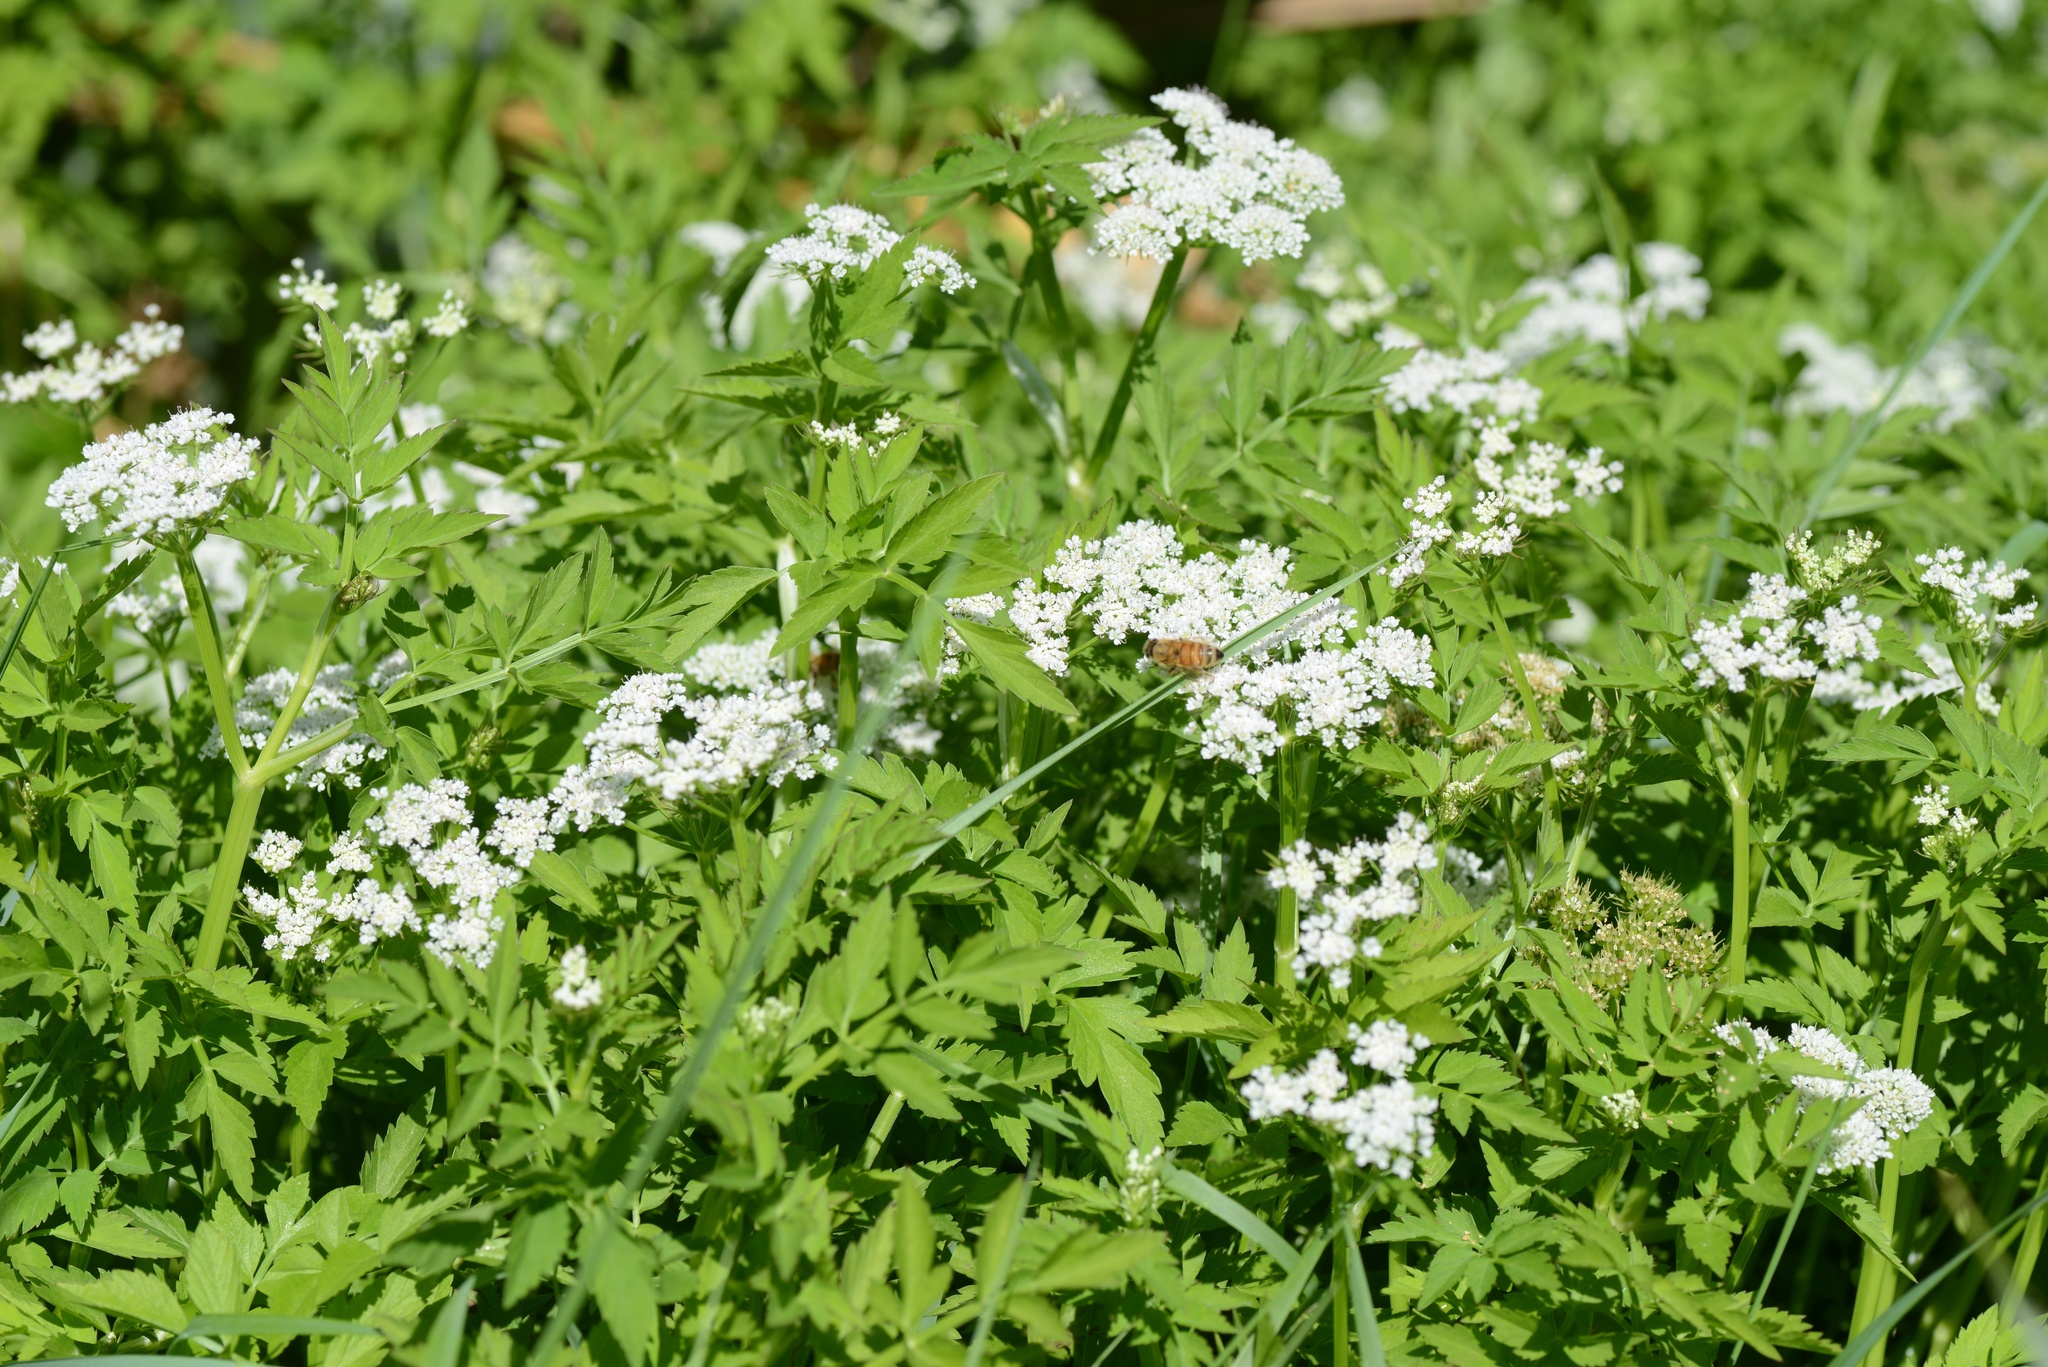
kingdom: Animalia
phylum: Arthropoda
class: Insecta
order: Hymenoptera
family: Apidae
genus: Apis
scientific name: Apis mellifera
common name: Honey bee
